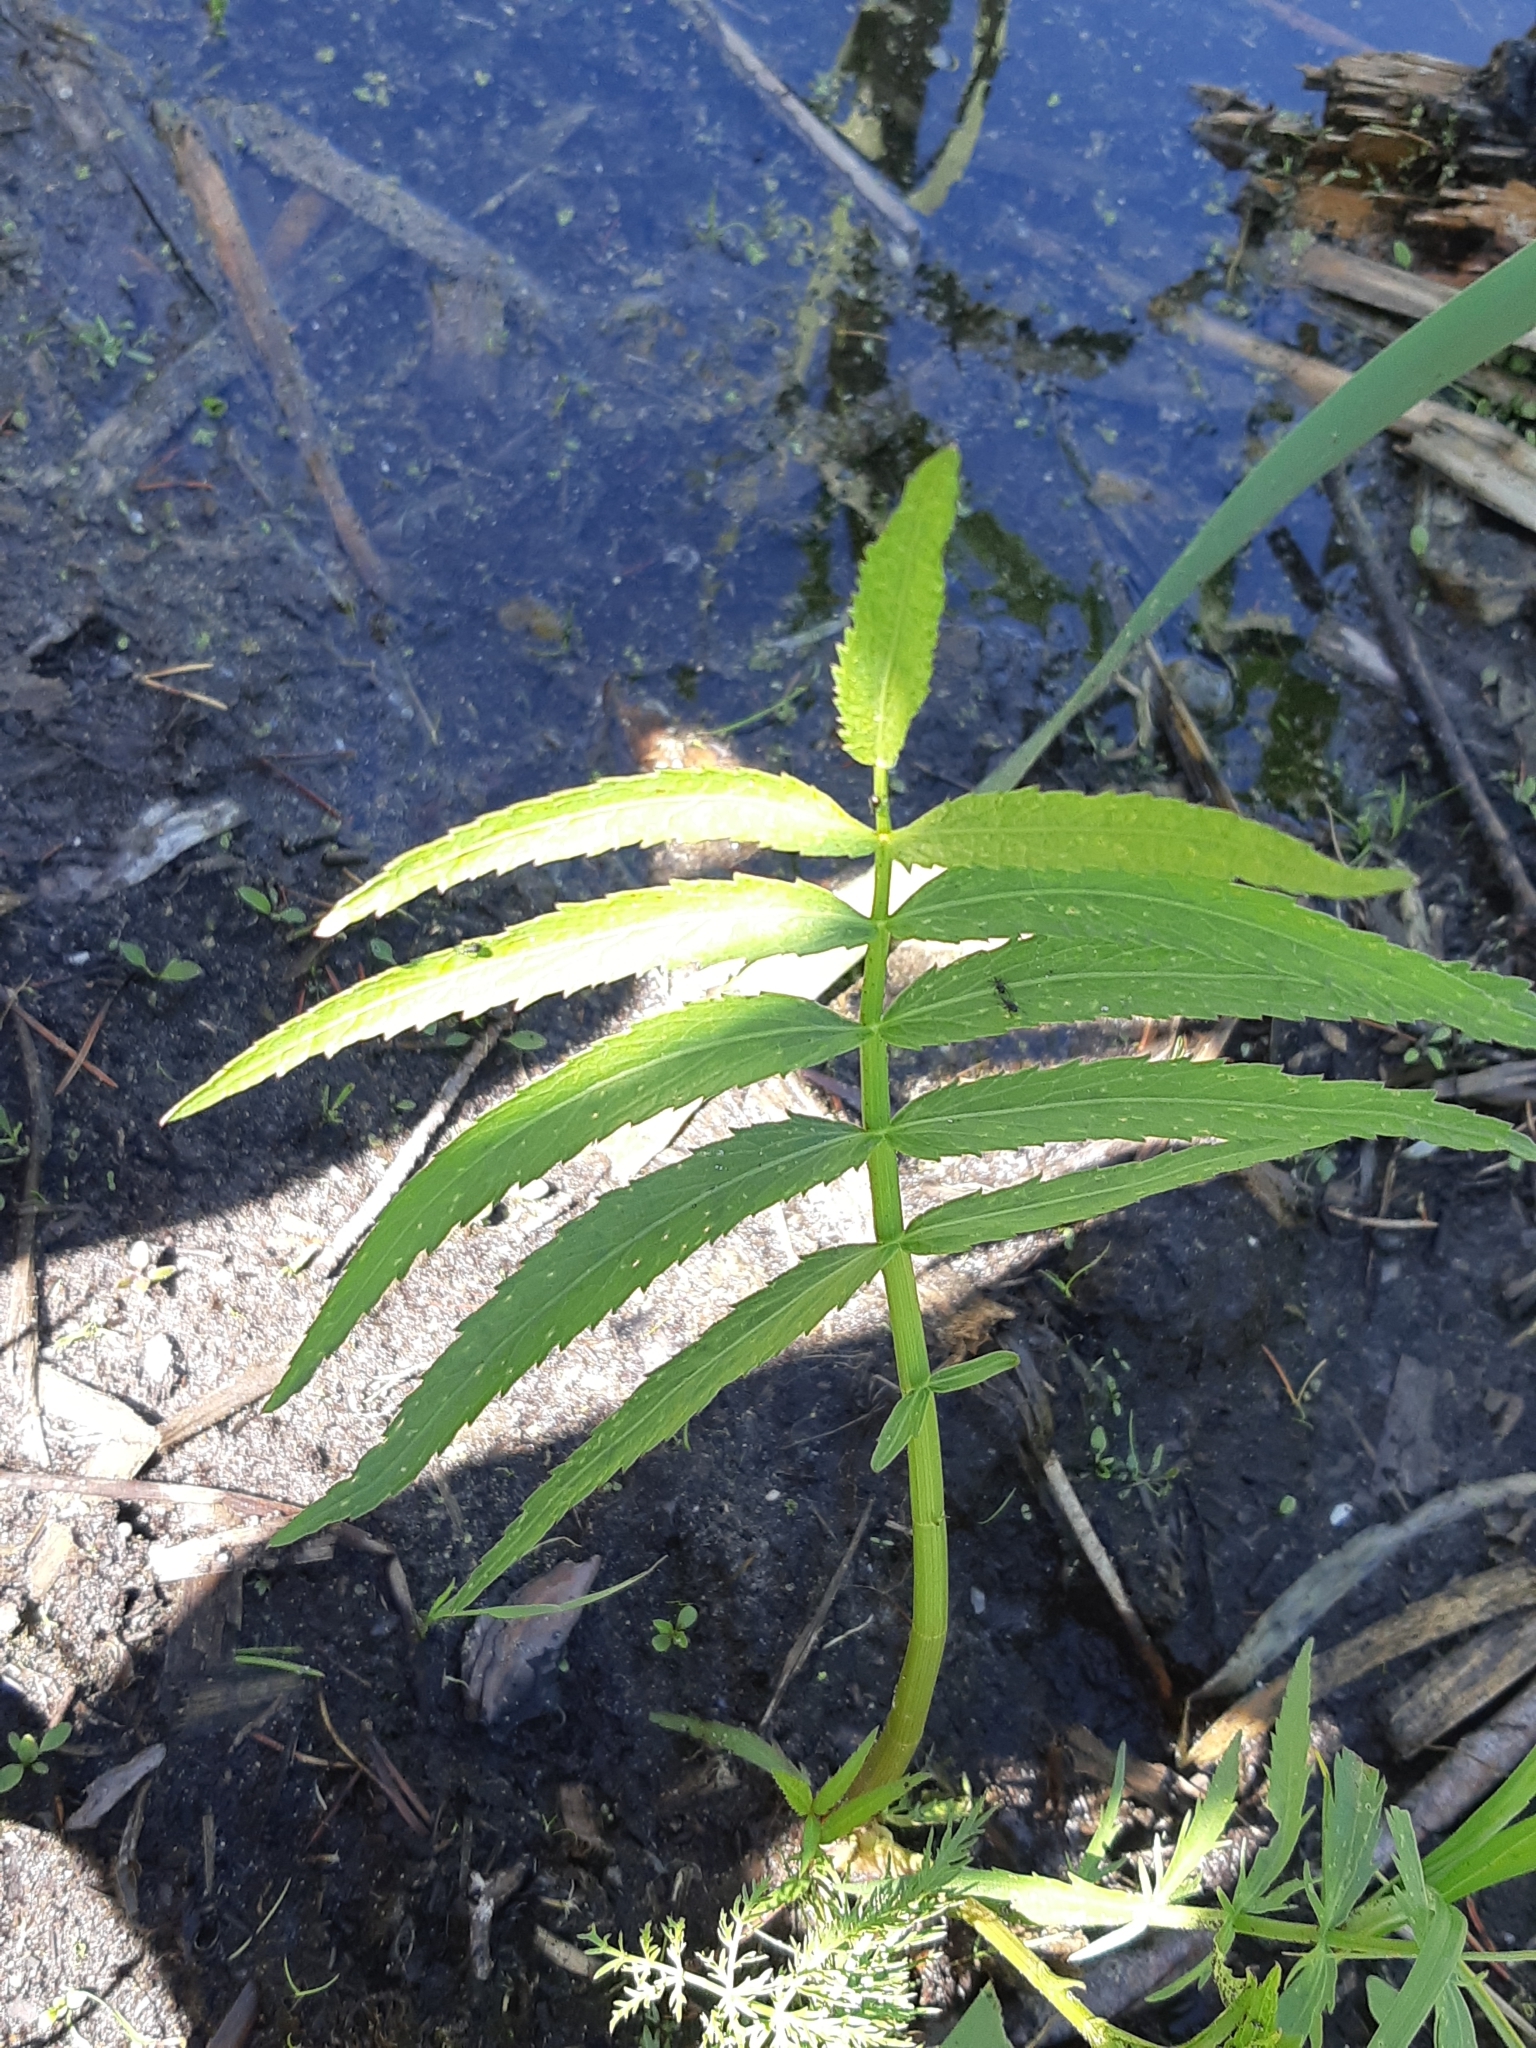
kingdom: Plantae
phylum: Tracheophyta
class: Magnoliopsida
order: Apiales
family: Apiaceae
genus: Sium
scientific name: Sium suave
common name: Hemlock water-parsnip
